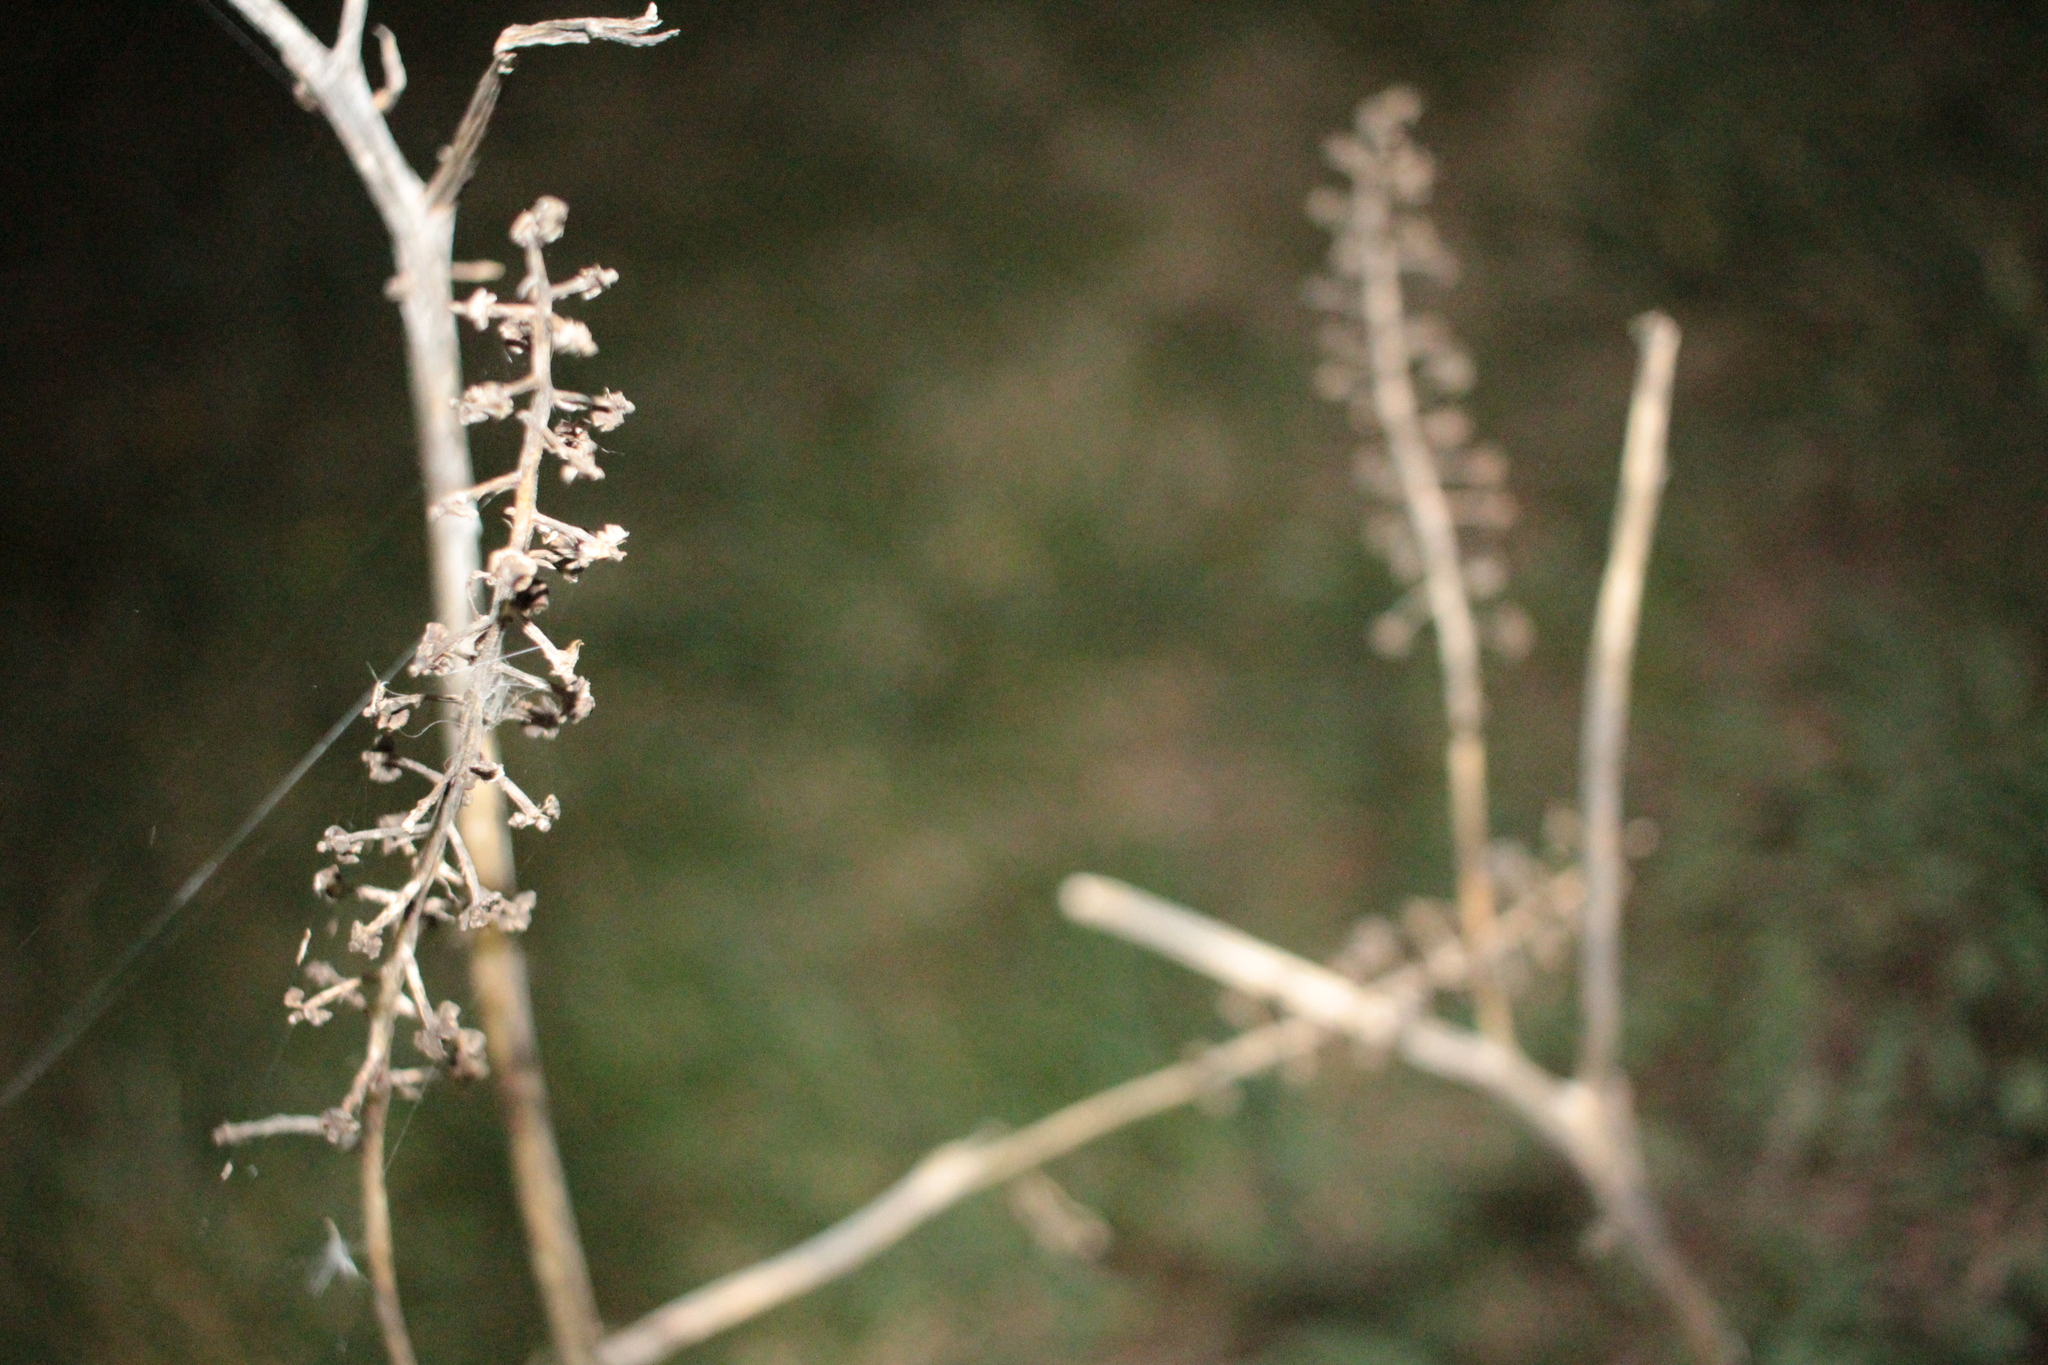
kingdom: Plantae
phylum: Tracheophyta
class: Magnoliopsida
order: Caryophyllales
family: Phytolaccaceae
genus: Phytolacca
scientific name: Phytolacca americana
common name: American pokeweed
